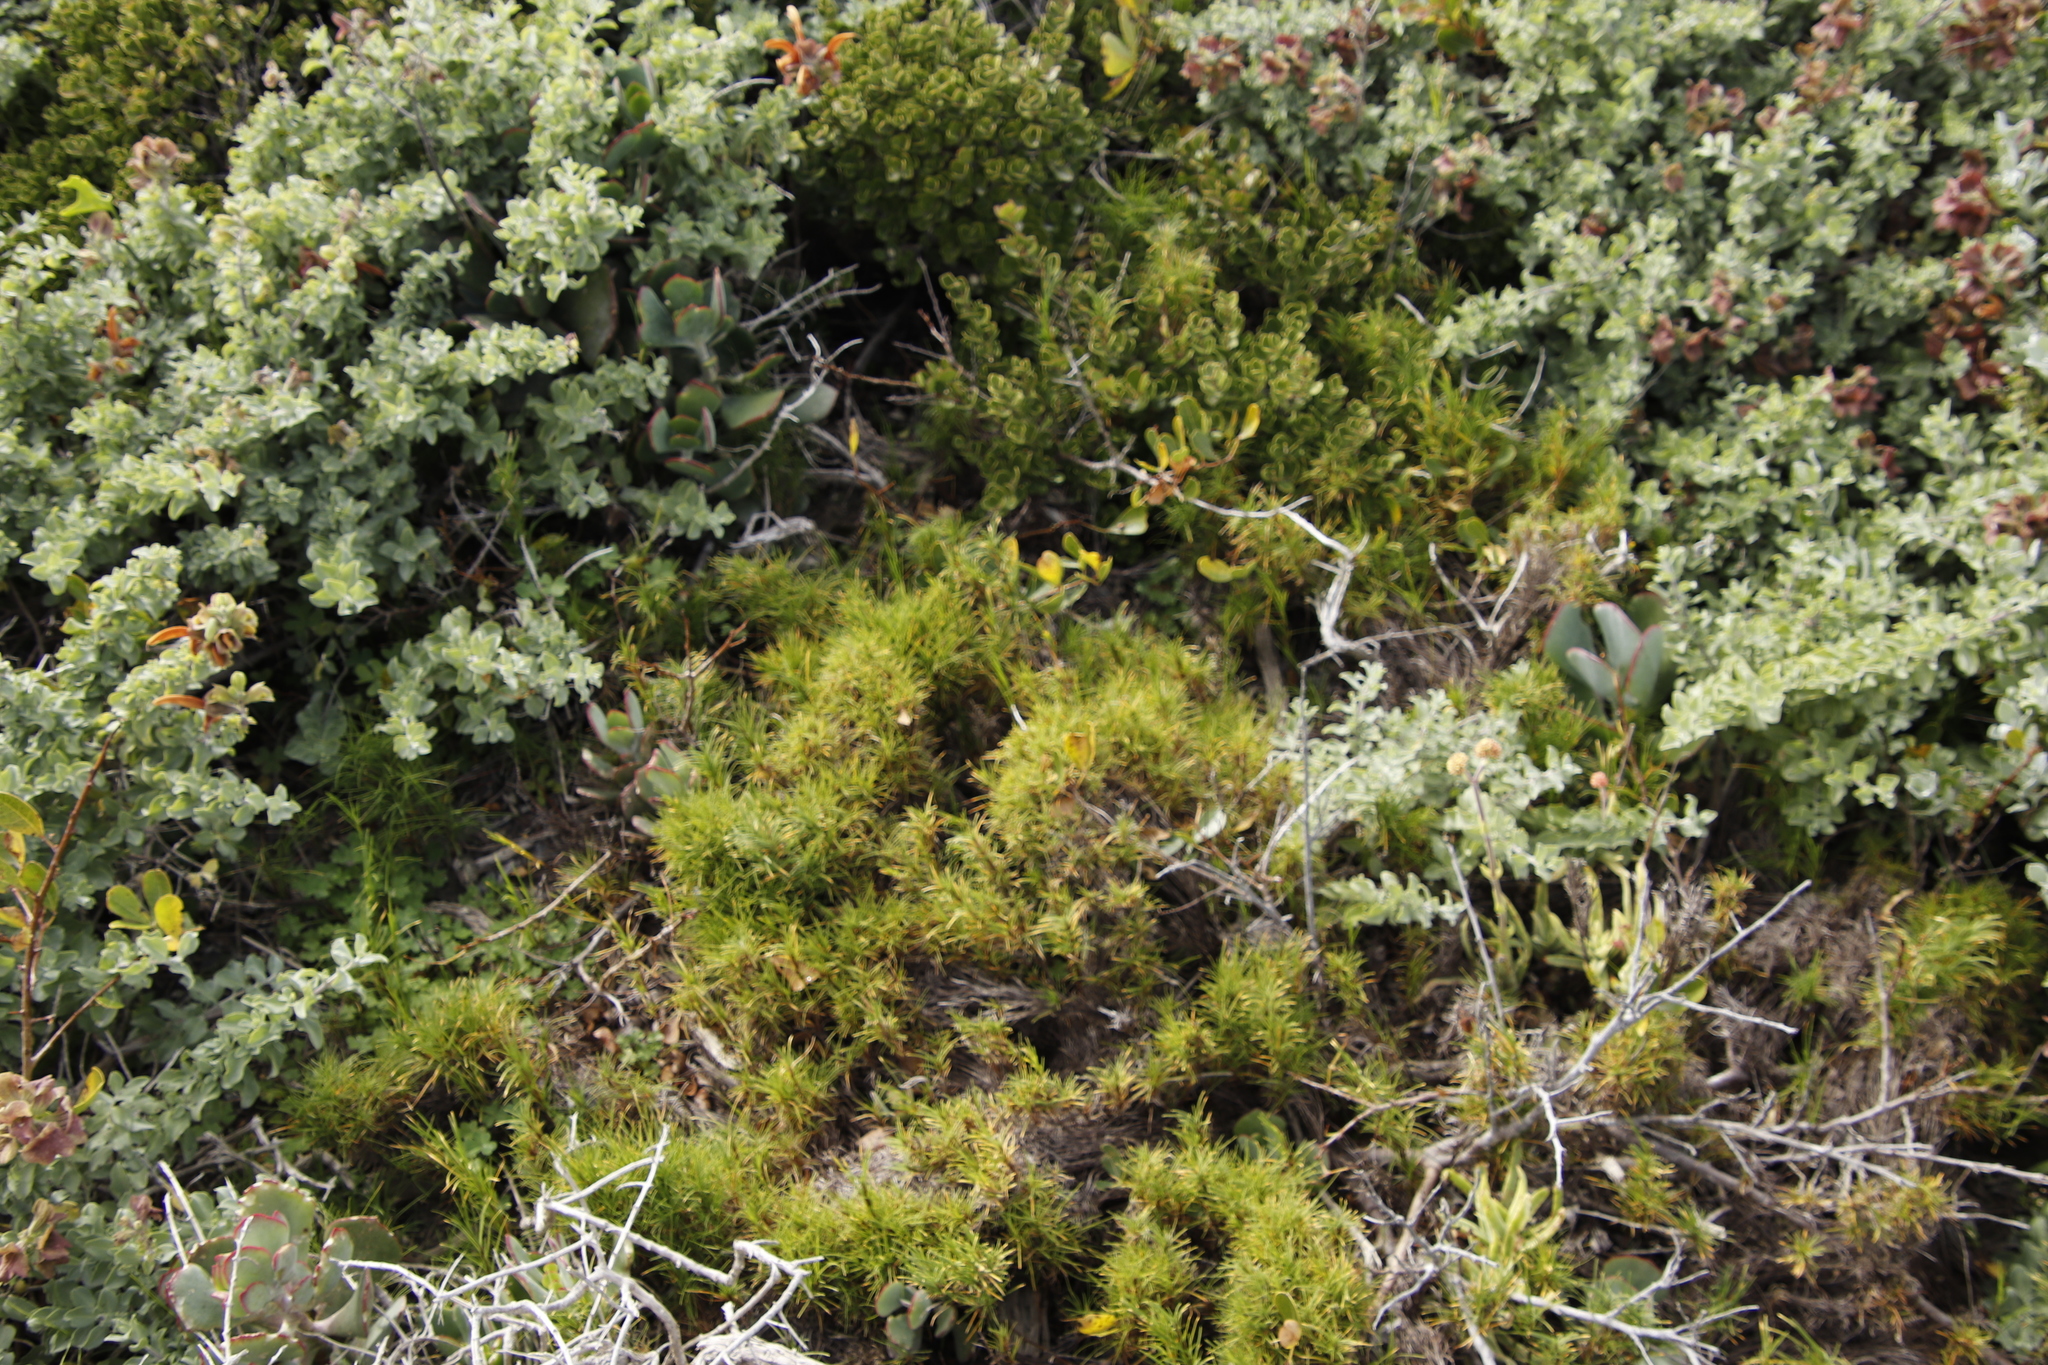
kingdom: Plantae
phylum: Tracheophyta
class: Liliopsida
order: Poales
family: Cyperaceae
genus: Ficinia
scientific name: Ficinia ramosissima
